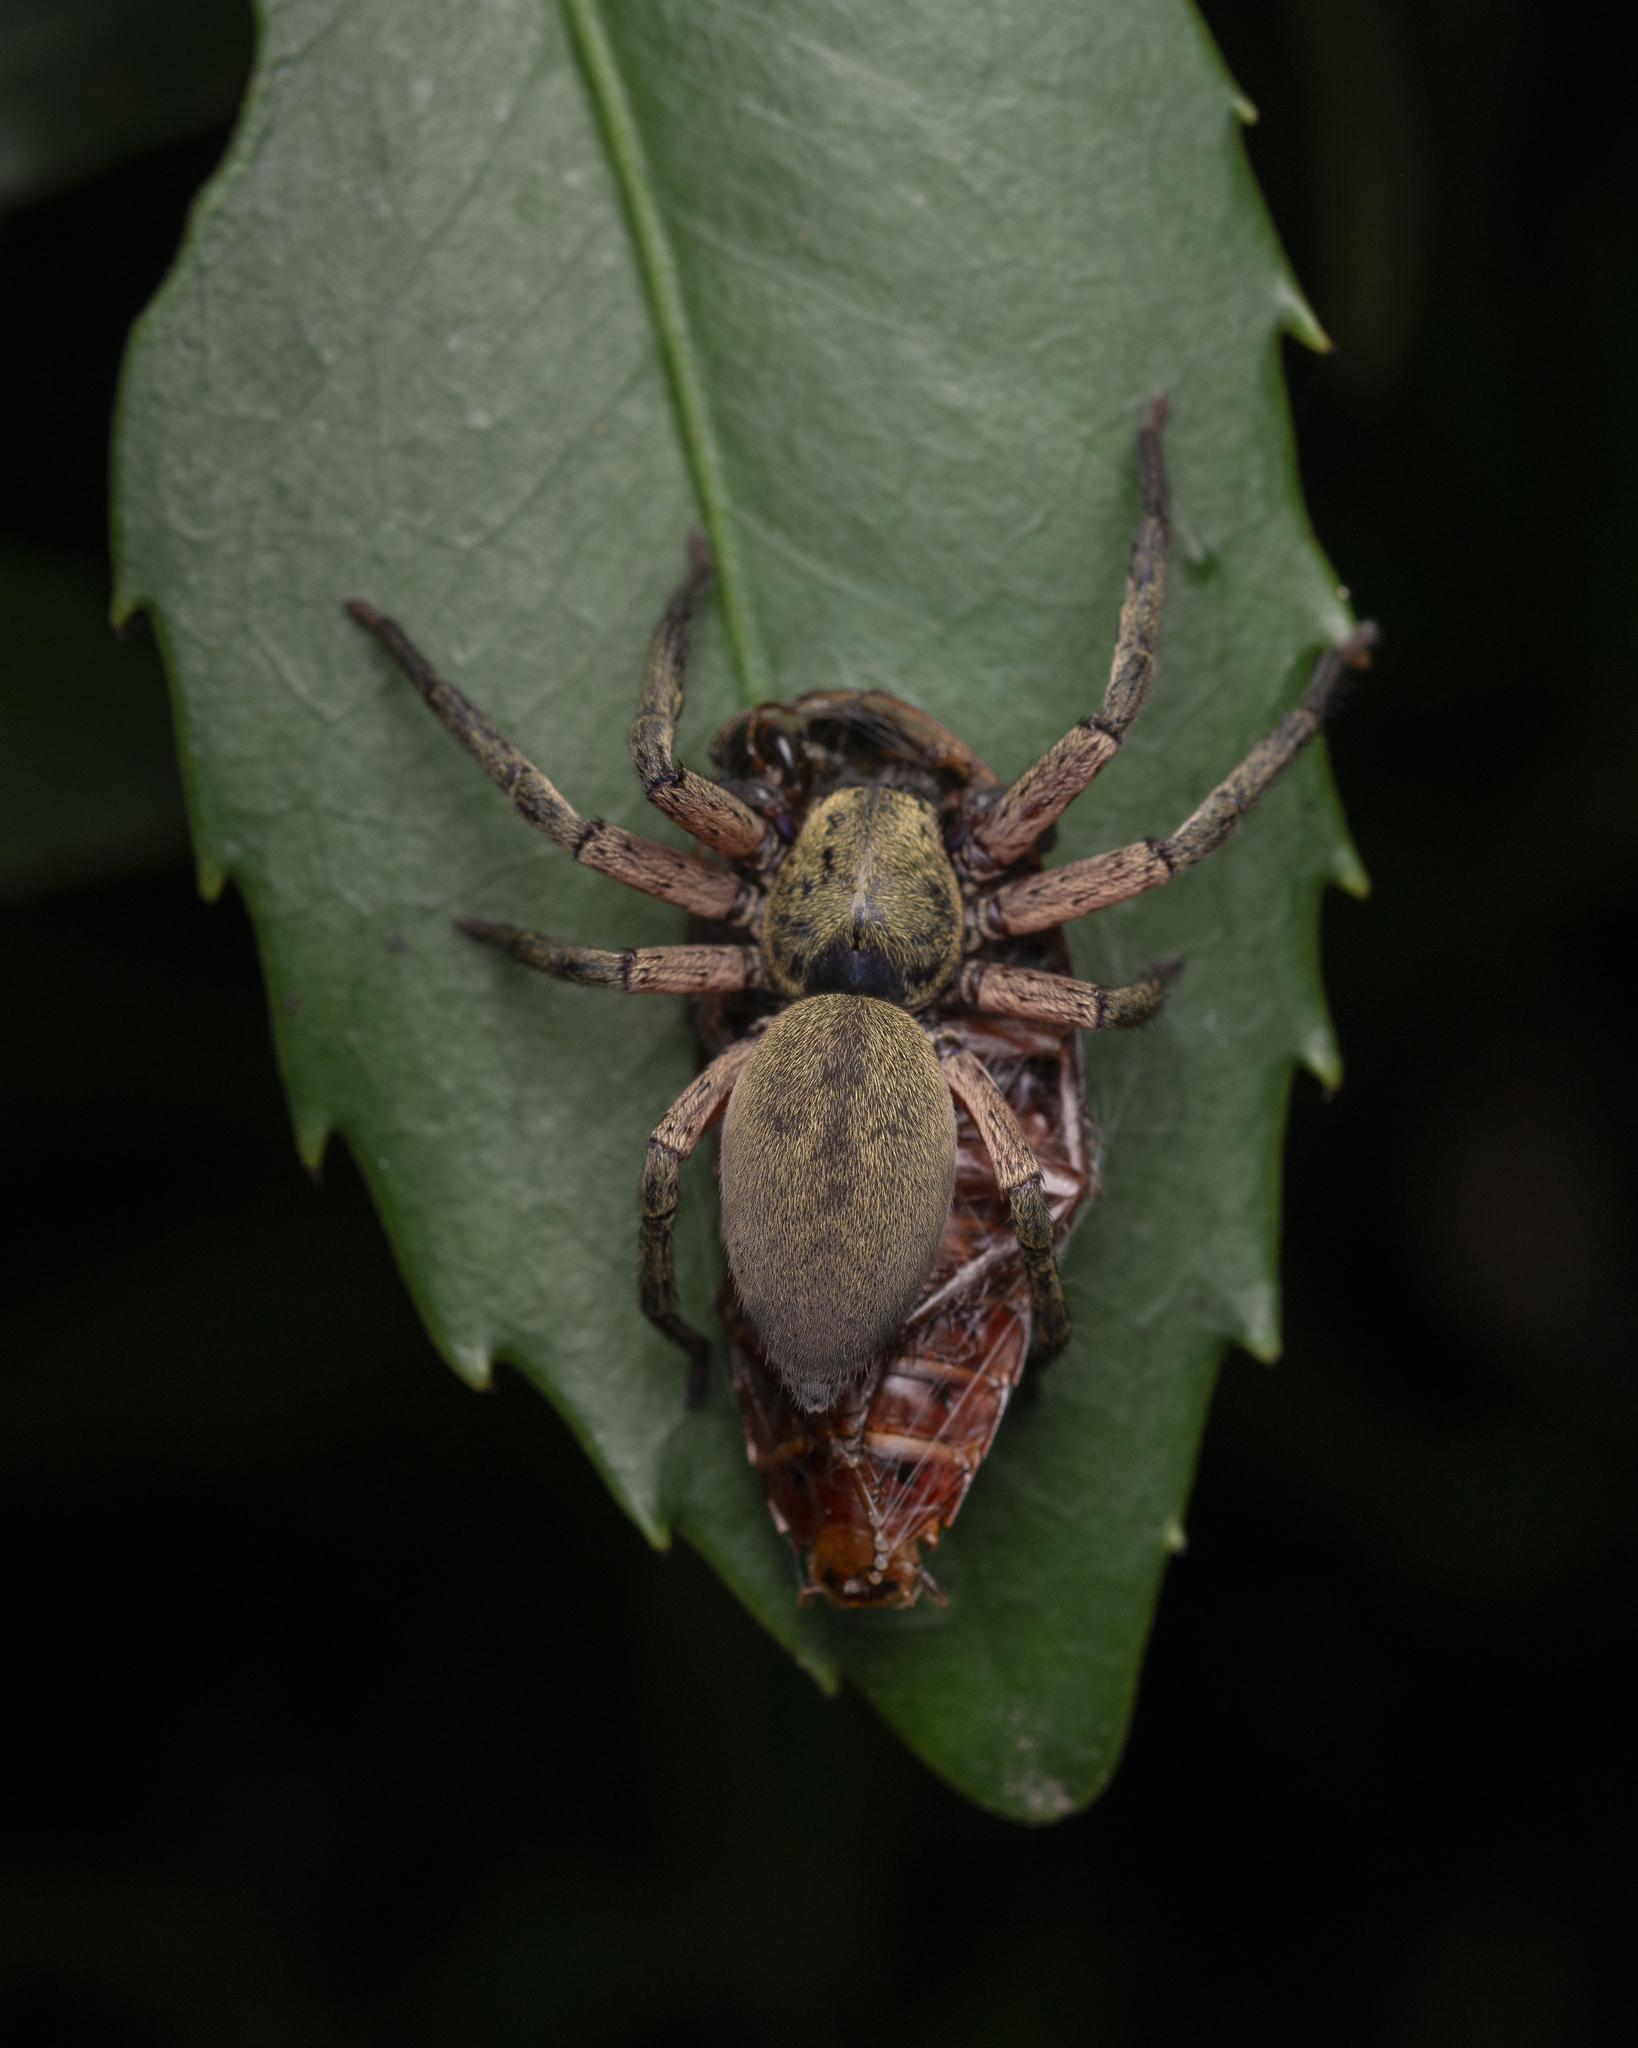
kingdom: Animalia
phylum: Arthropoda
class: Arachnida
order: Araneae
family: Sparassidae
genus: Thelcticopis
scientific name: Thelcticopis severa
